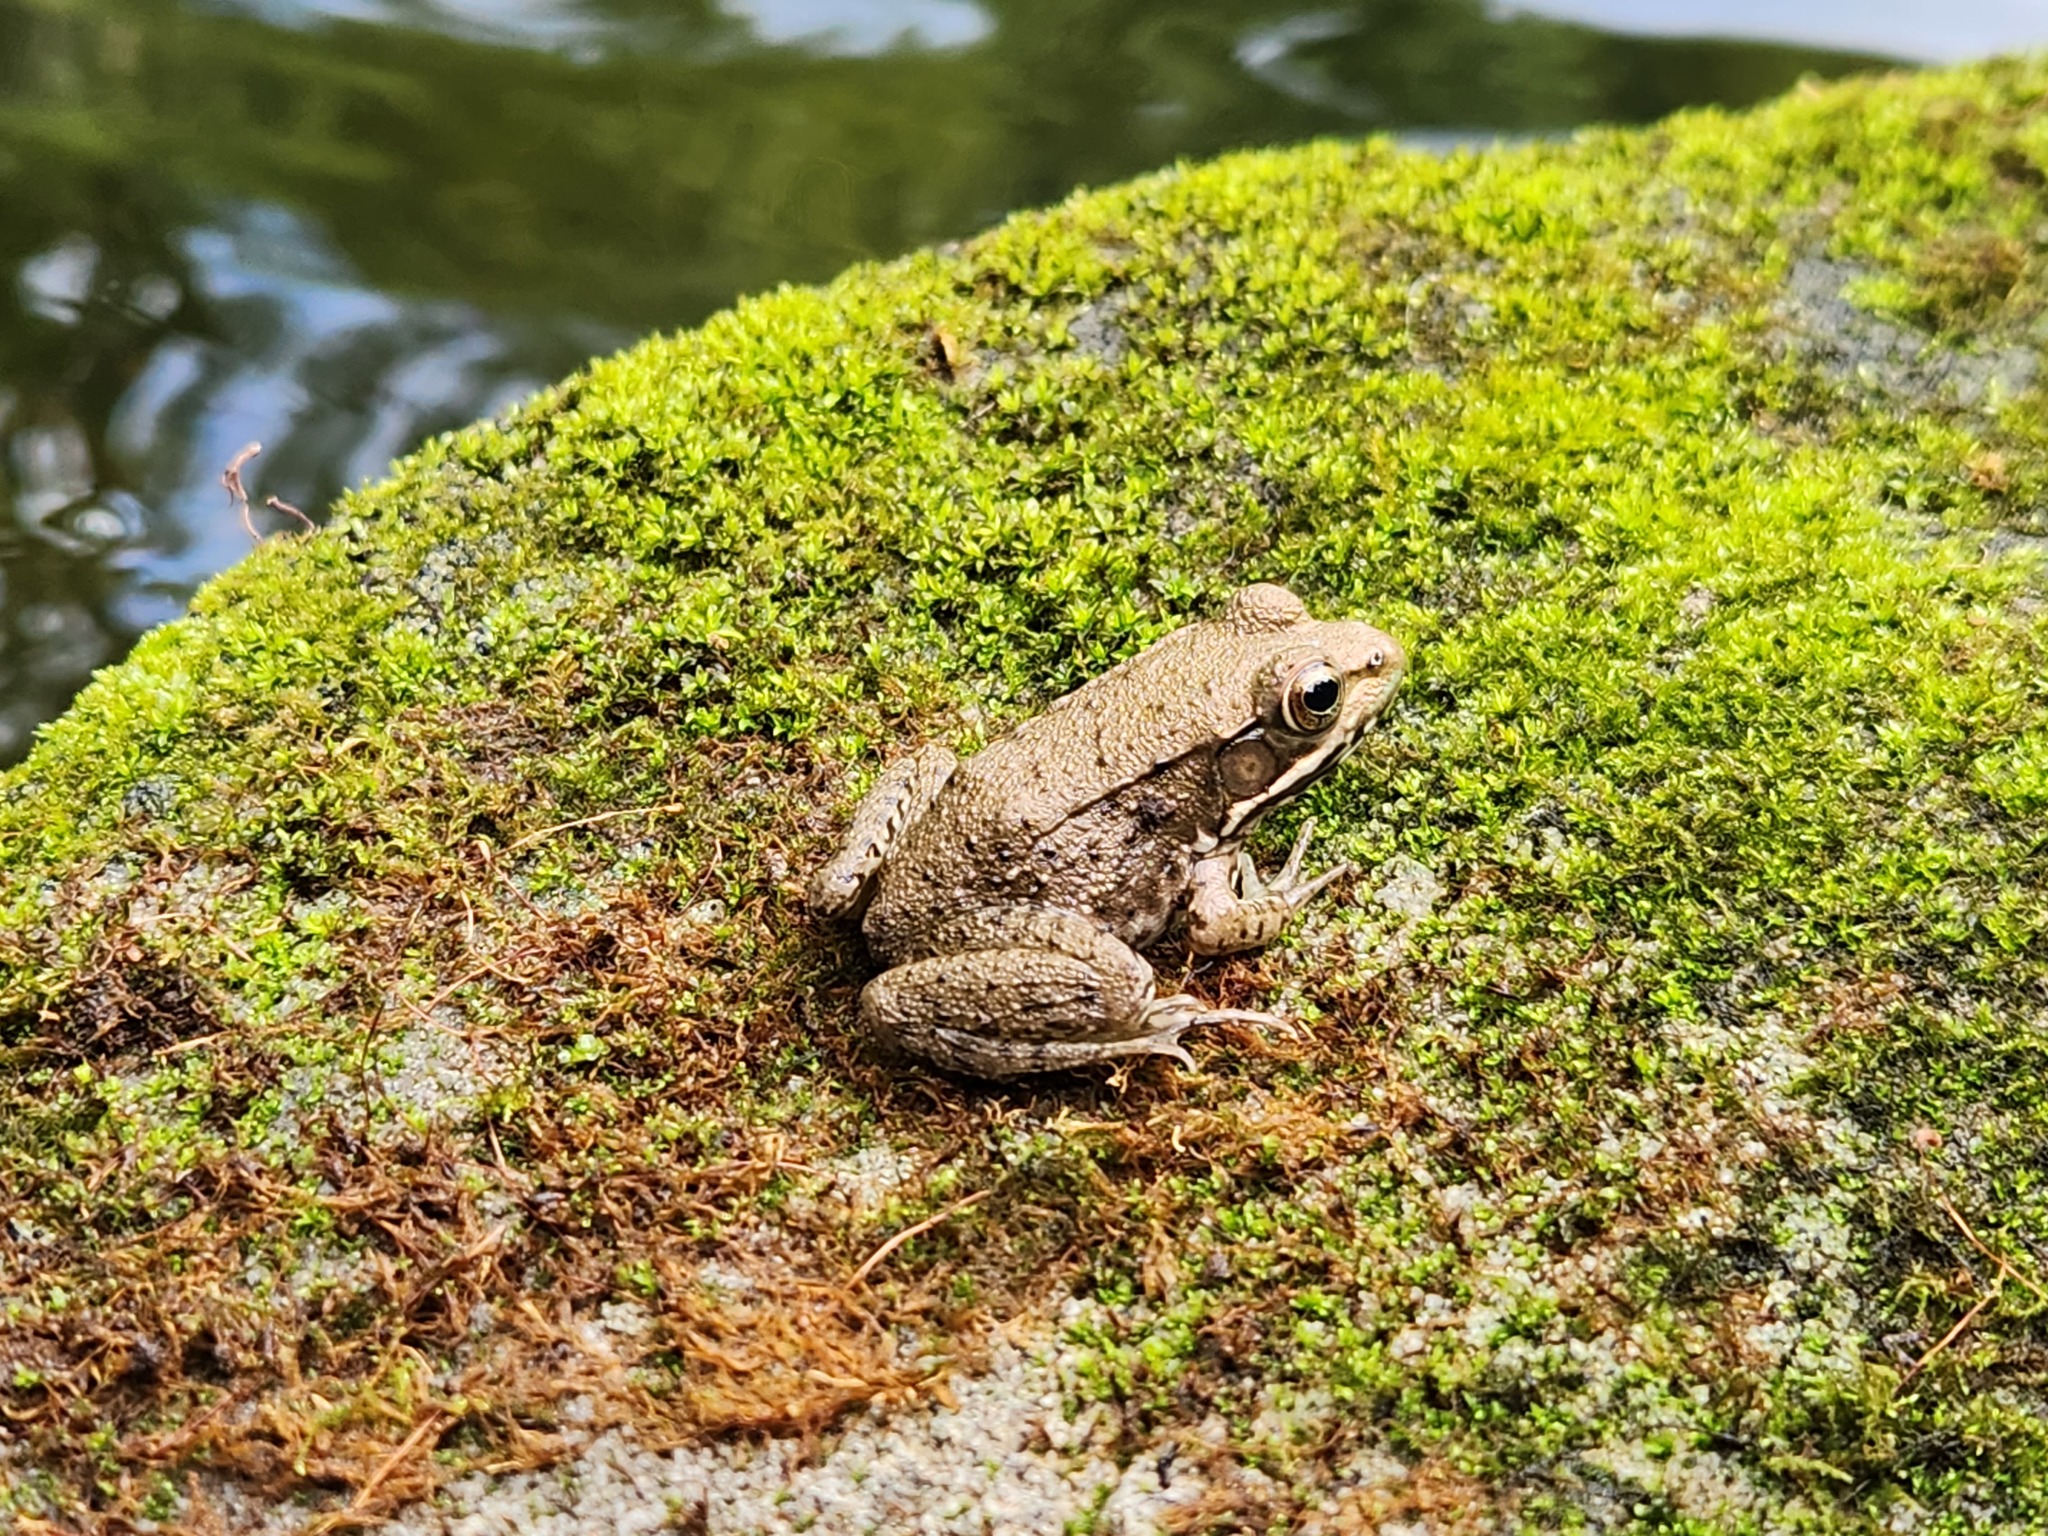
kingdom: Animalia
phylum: Chordata
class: Amphibia
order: Anura
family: Ranidae
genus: Lithobates
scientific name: Lithobates clamitans
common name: Green frog
